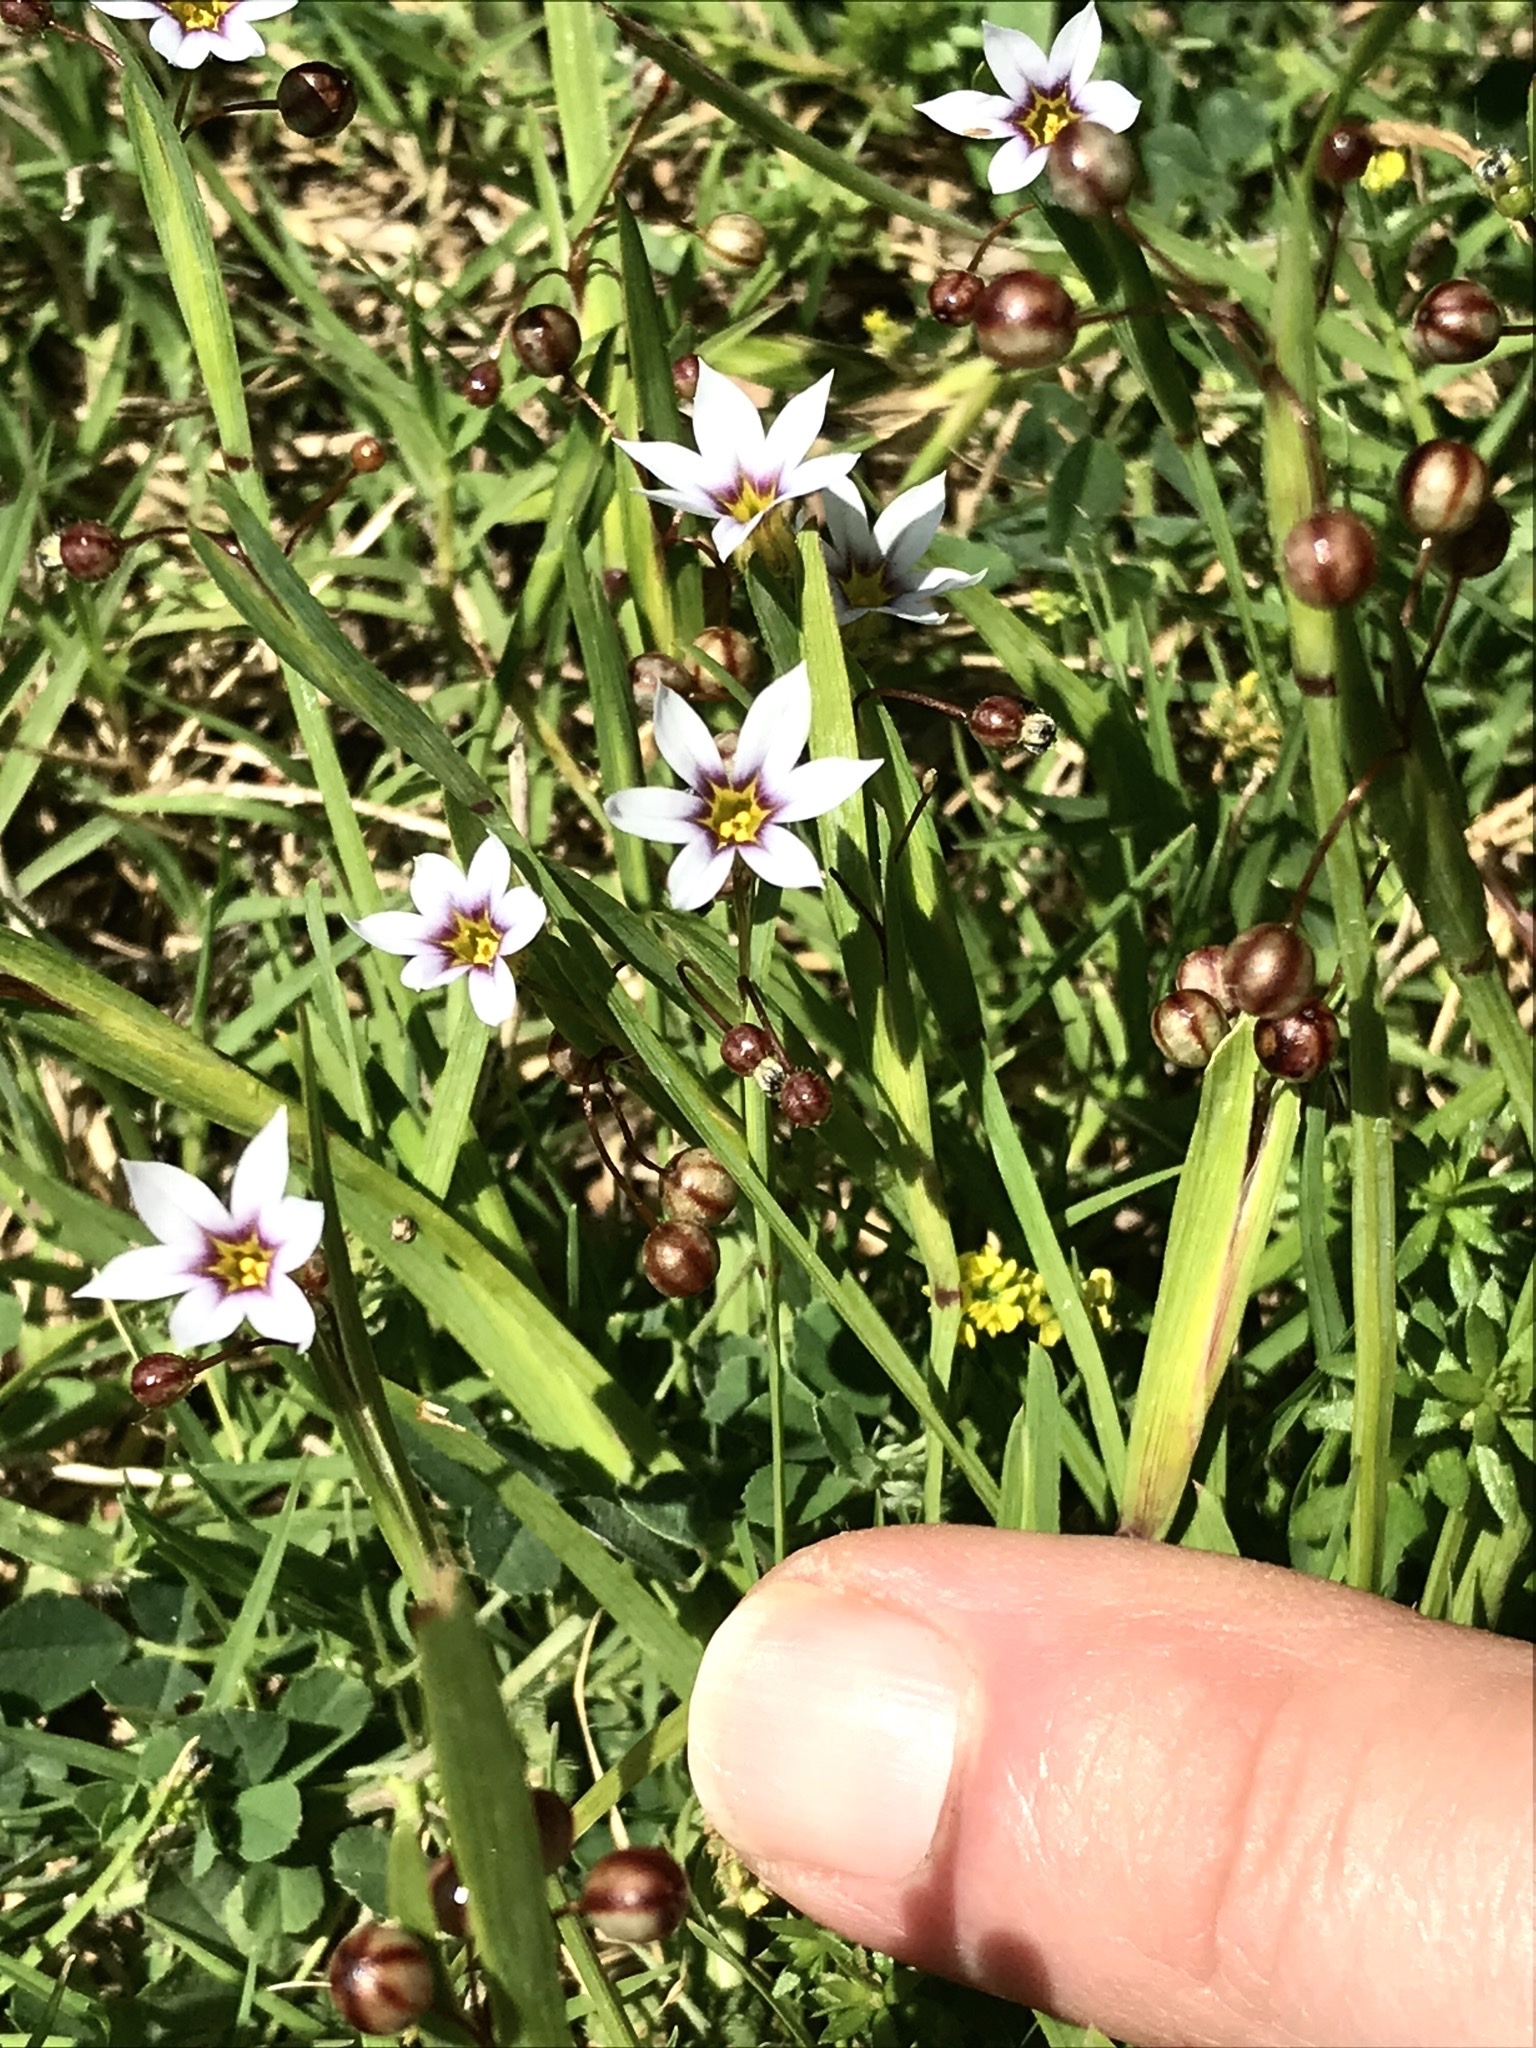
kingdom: Plantae
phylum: Tracheophyta
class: Liliopsida
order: Asparagales
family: Iridaceae
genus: Sisyrinchium
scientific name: Sisyrinchium micranthum
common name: Bermuda pigroot
